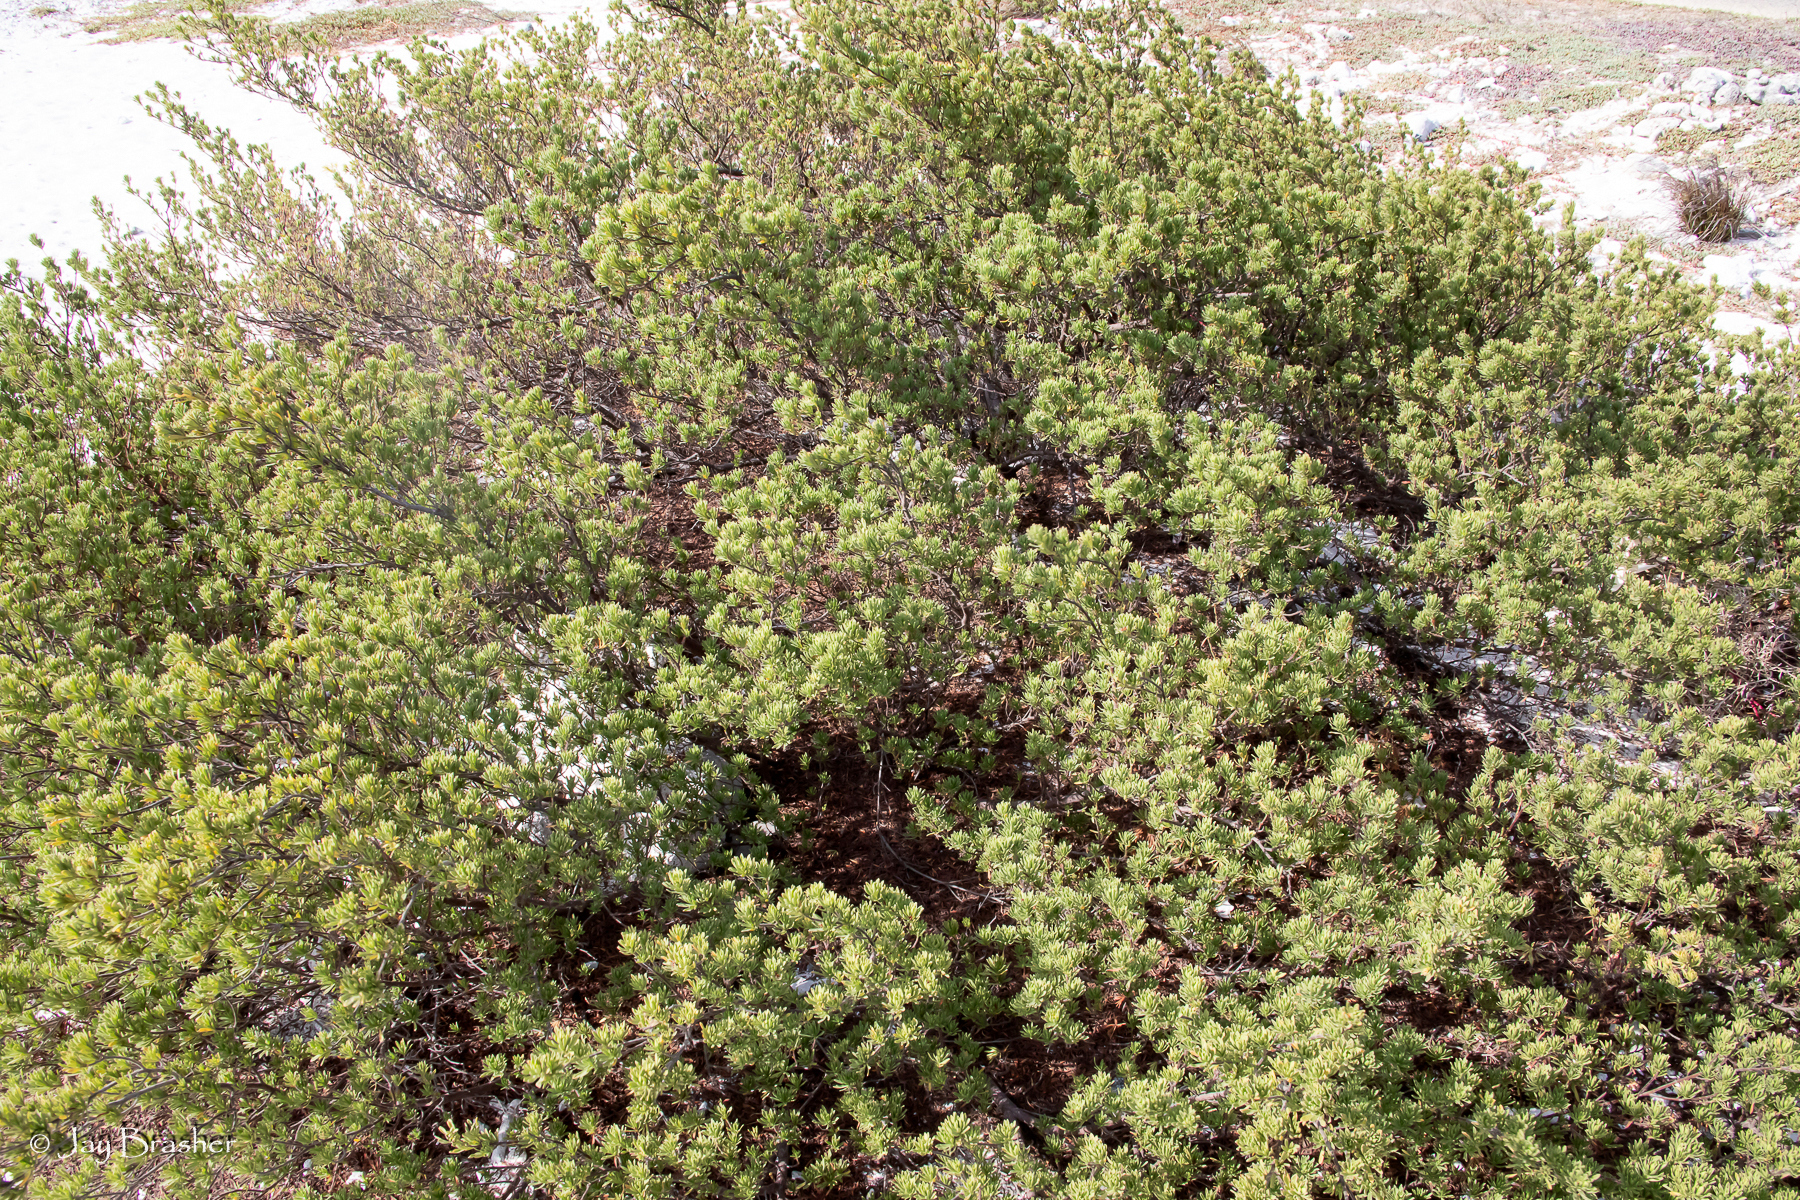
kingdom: Plantae
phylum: Tracheophyta
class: Magnoliopsida
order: Fabales
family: Surianaceae
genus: Suriana
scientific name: Suriana maritima
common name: Bay-cedar
